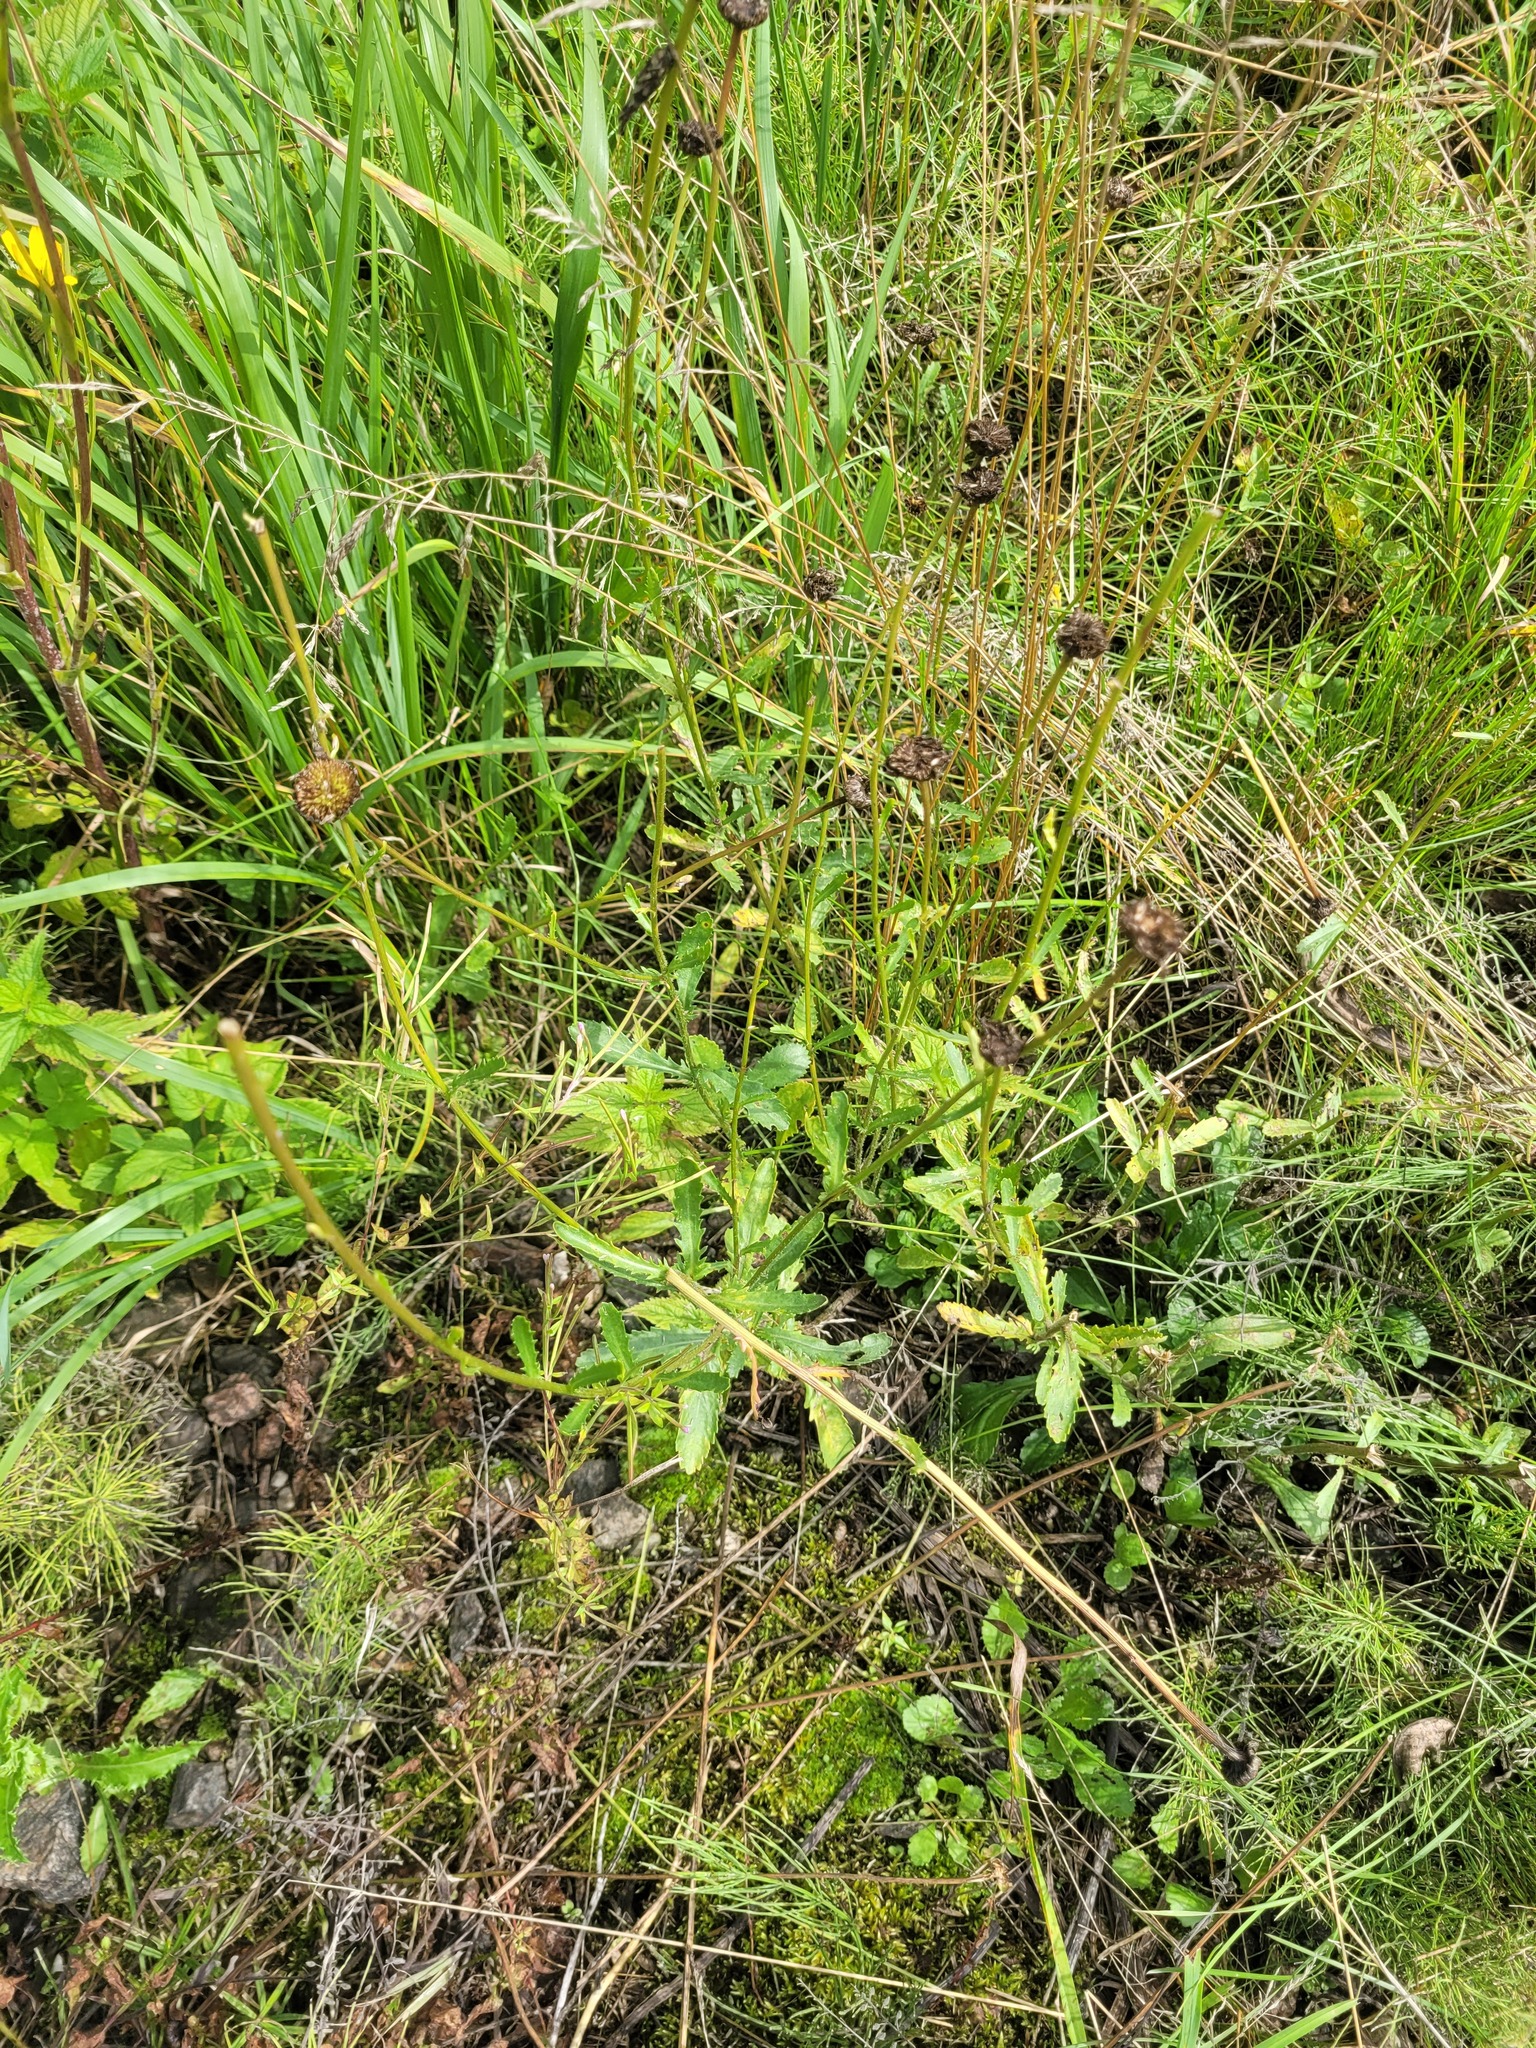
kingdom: Plantae
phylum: Tracheophyta
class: Magnoliopsida
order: Asterales
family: Asteraceae
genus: Leucanthemum
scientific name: Leucanthemum vulgare
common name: Oxeye daisy
